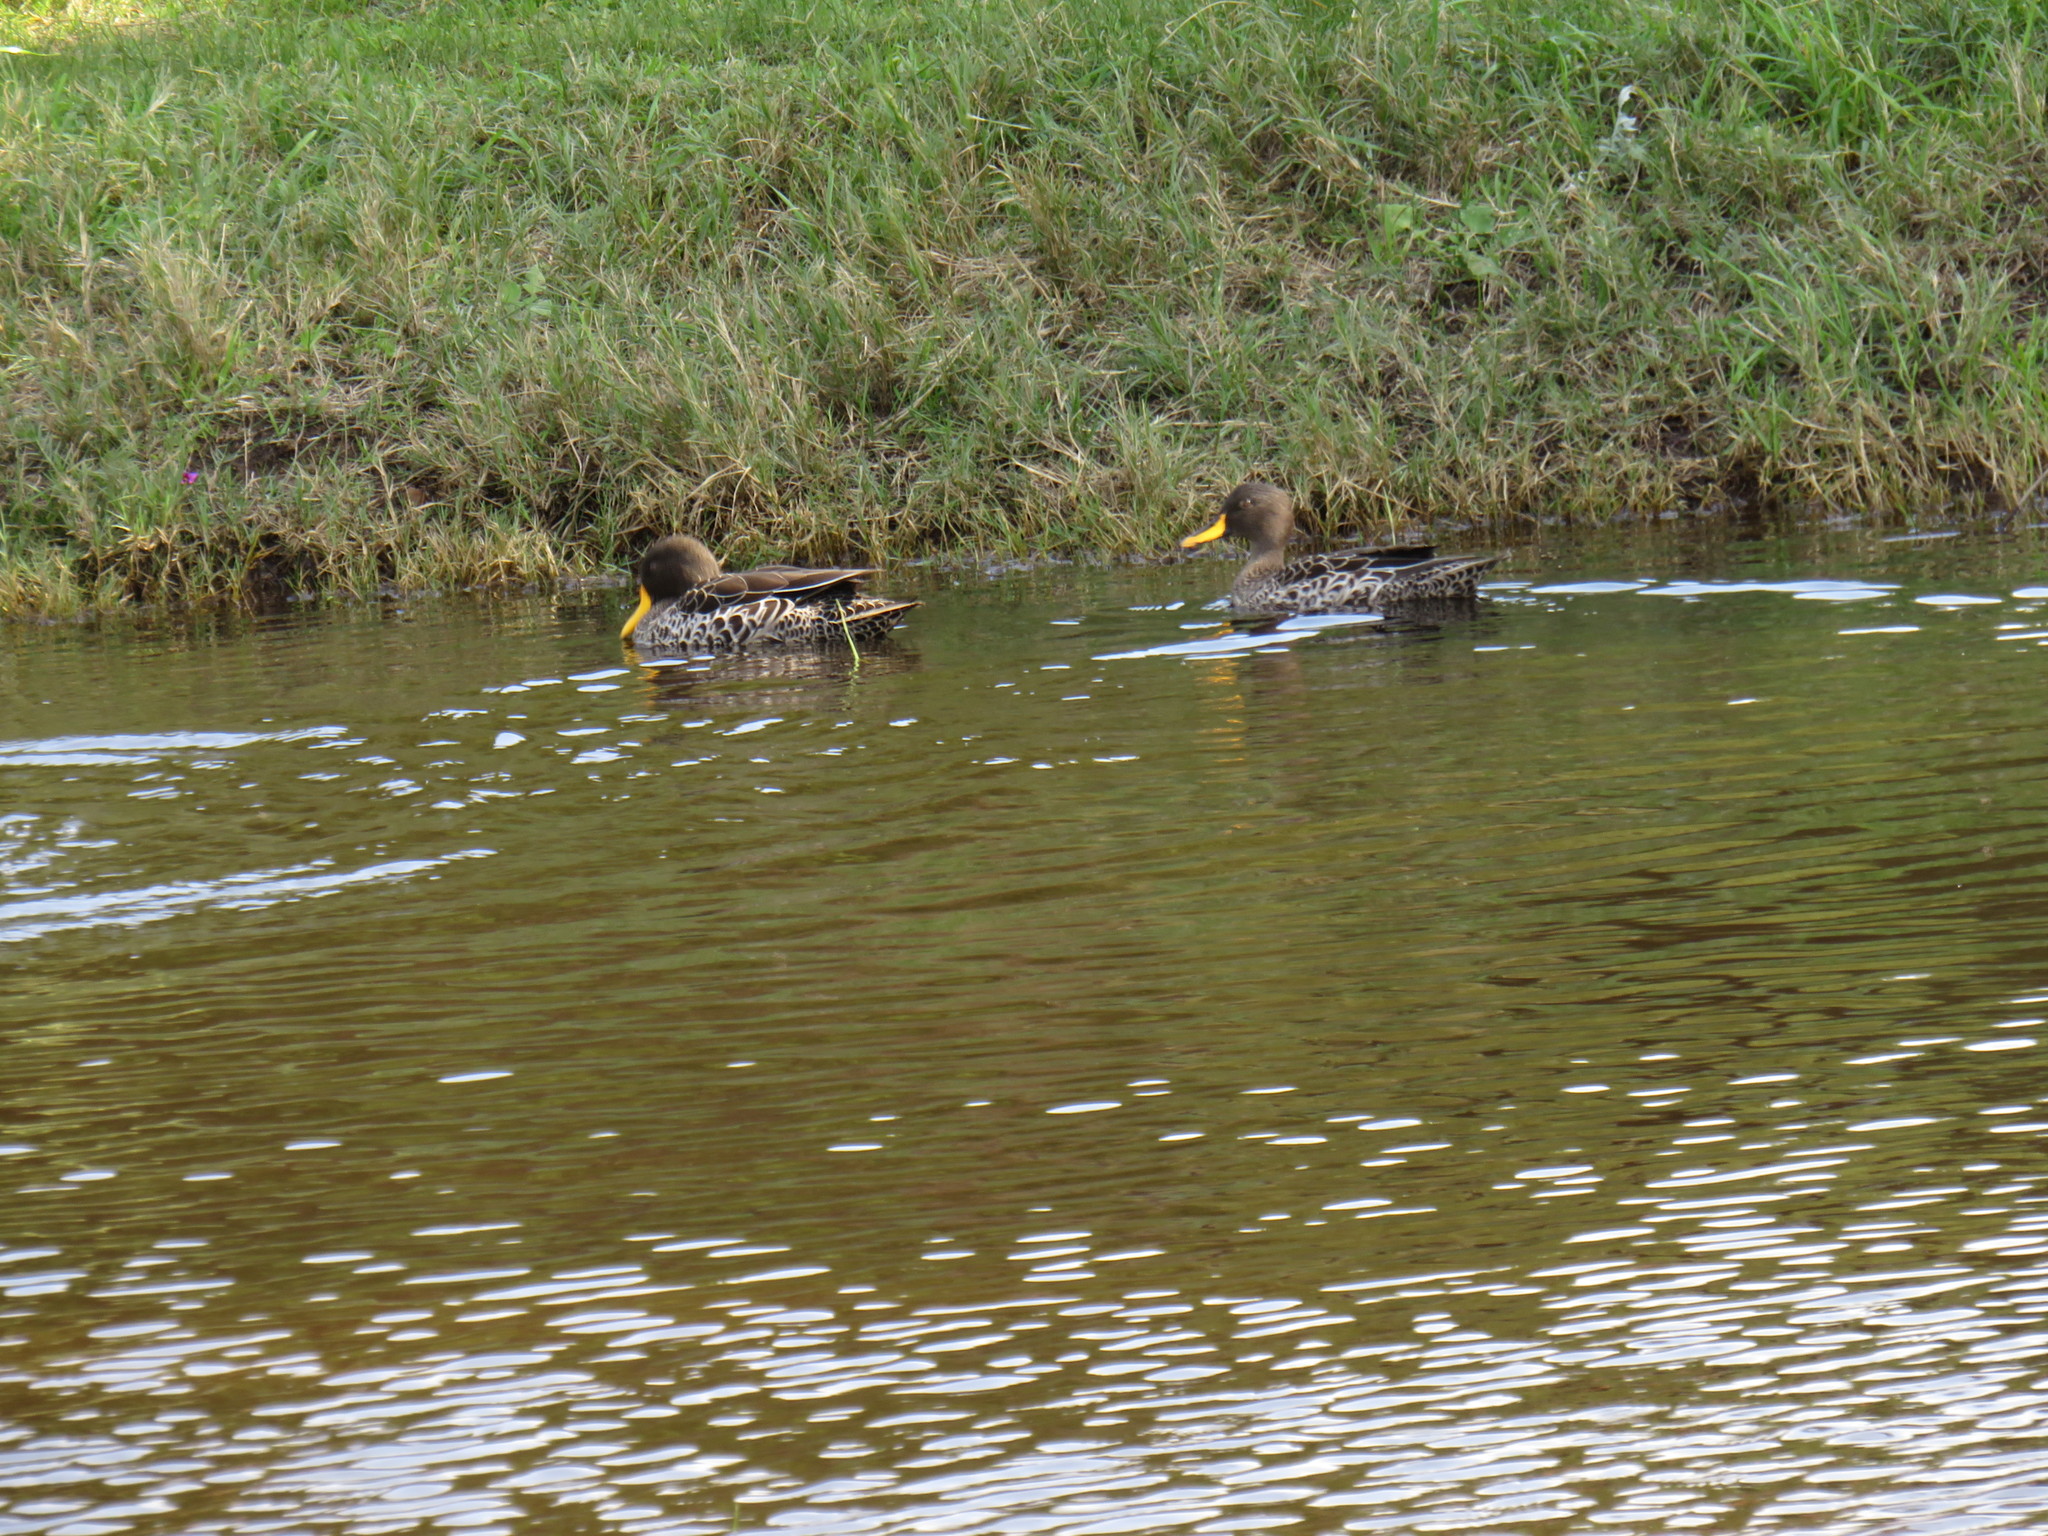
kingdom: Animalia
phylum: Chordata
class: Aves
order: Anseriformes
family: Anatidae
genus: Anas
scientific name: Anas undulata
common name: Yellow-billed duck
